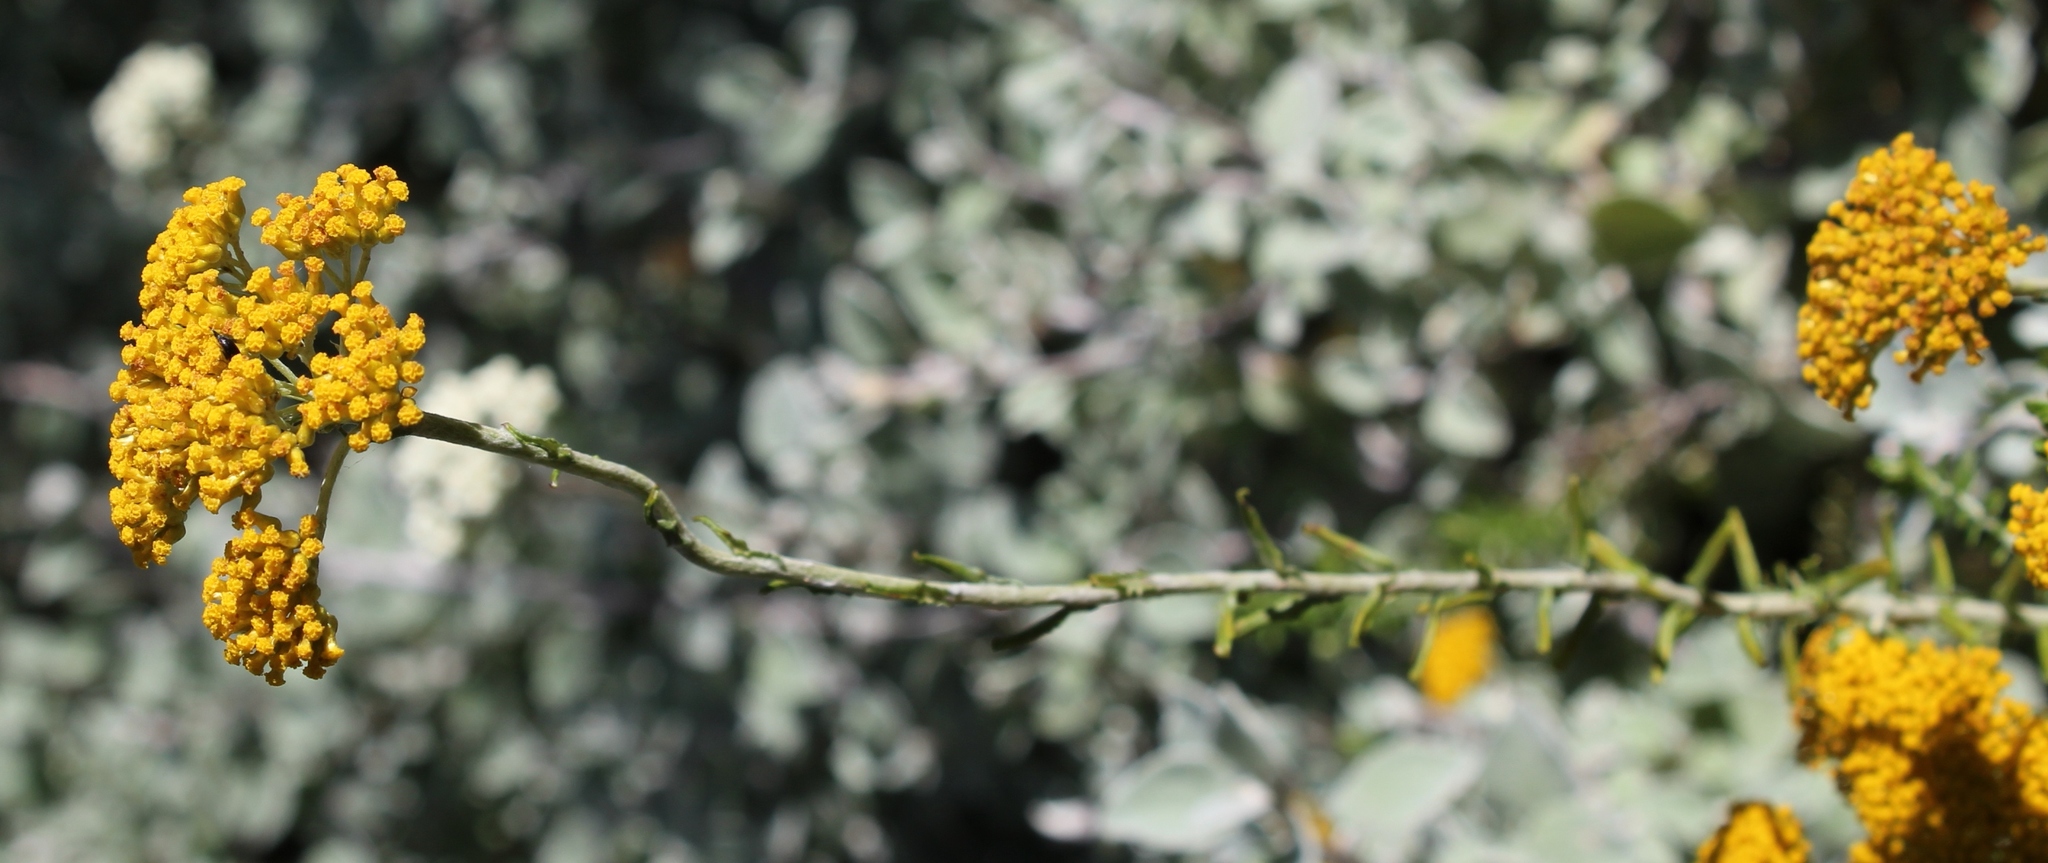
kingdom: Plantae
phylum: Tracheophyta
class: Magnoliopsida
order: Asterales
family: Asteraceae
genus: Helichrysum
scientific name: Helichrysum cymosum
